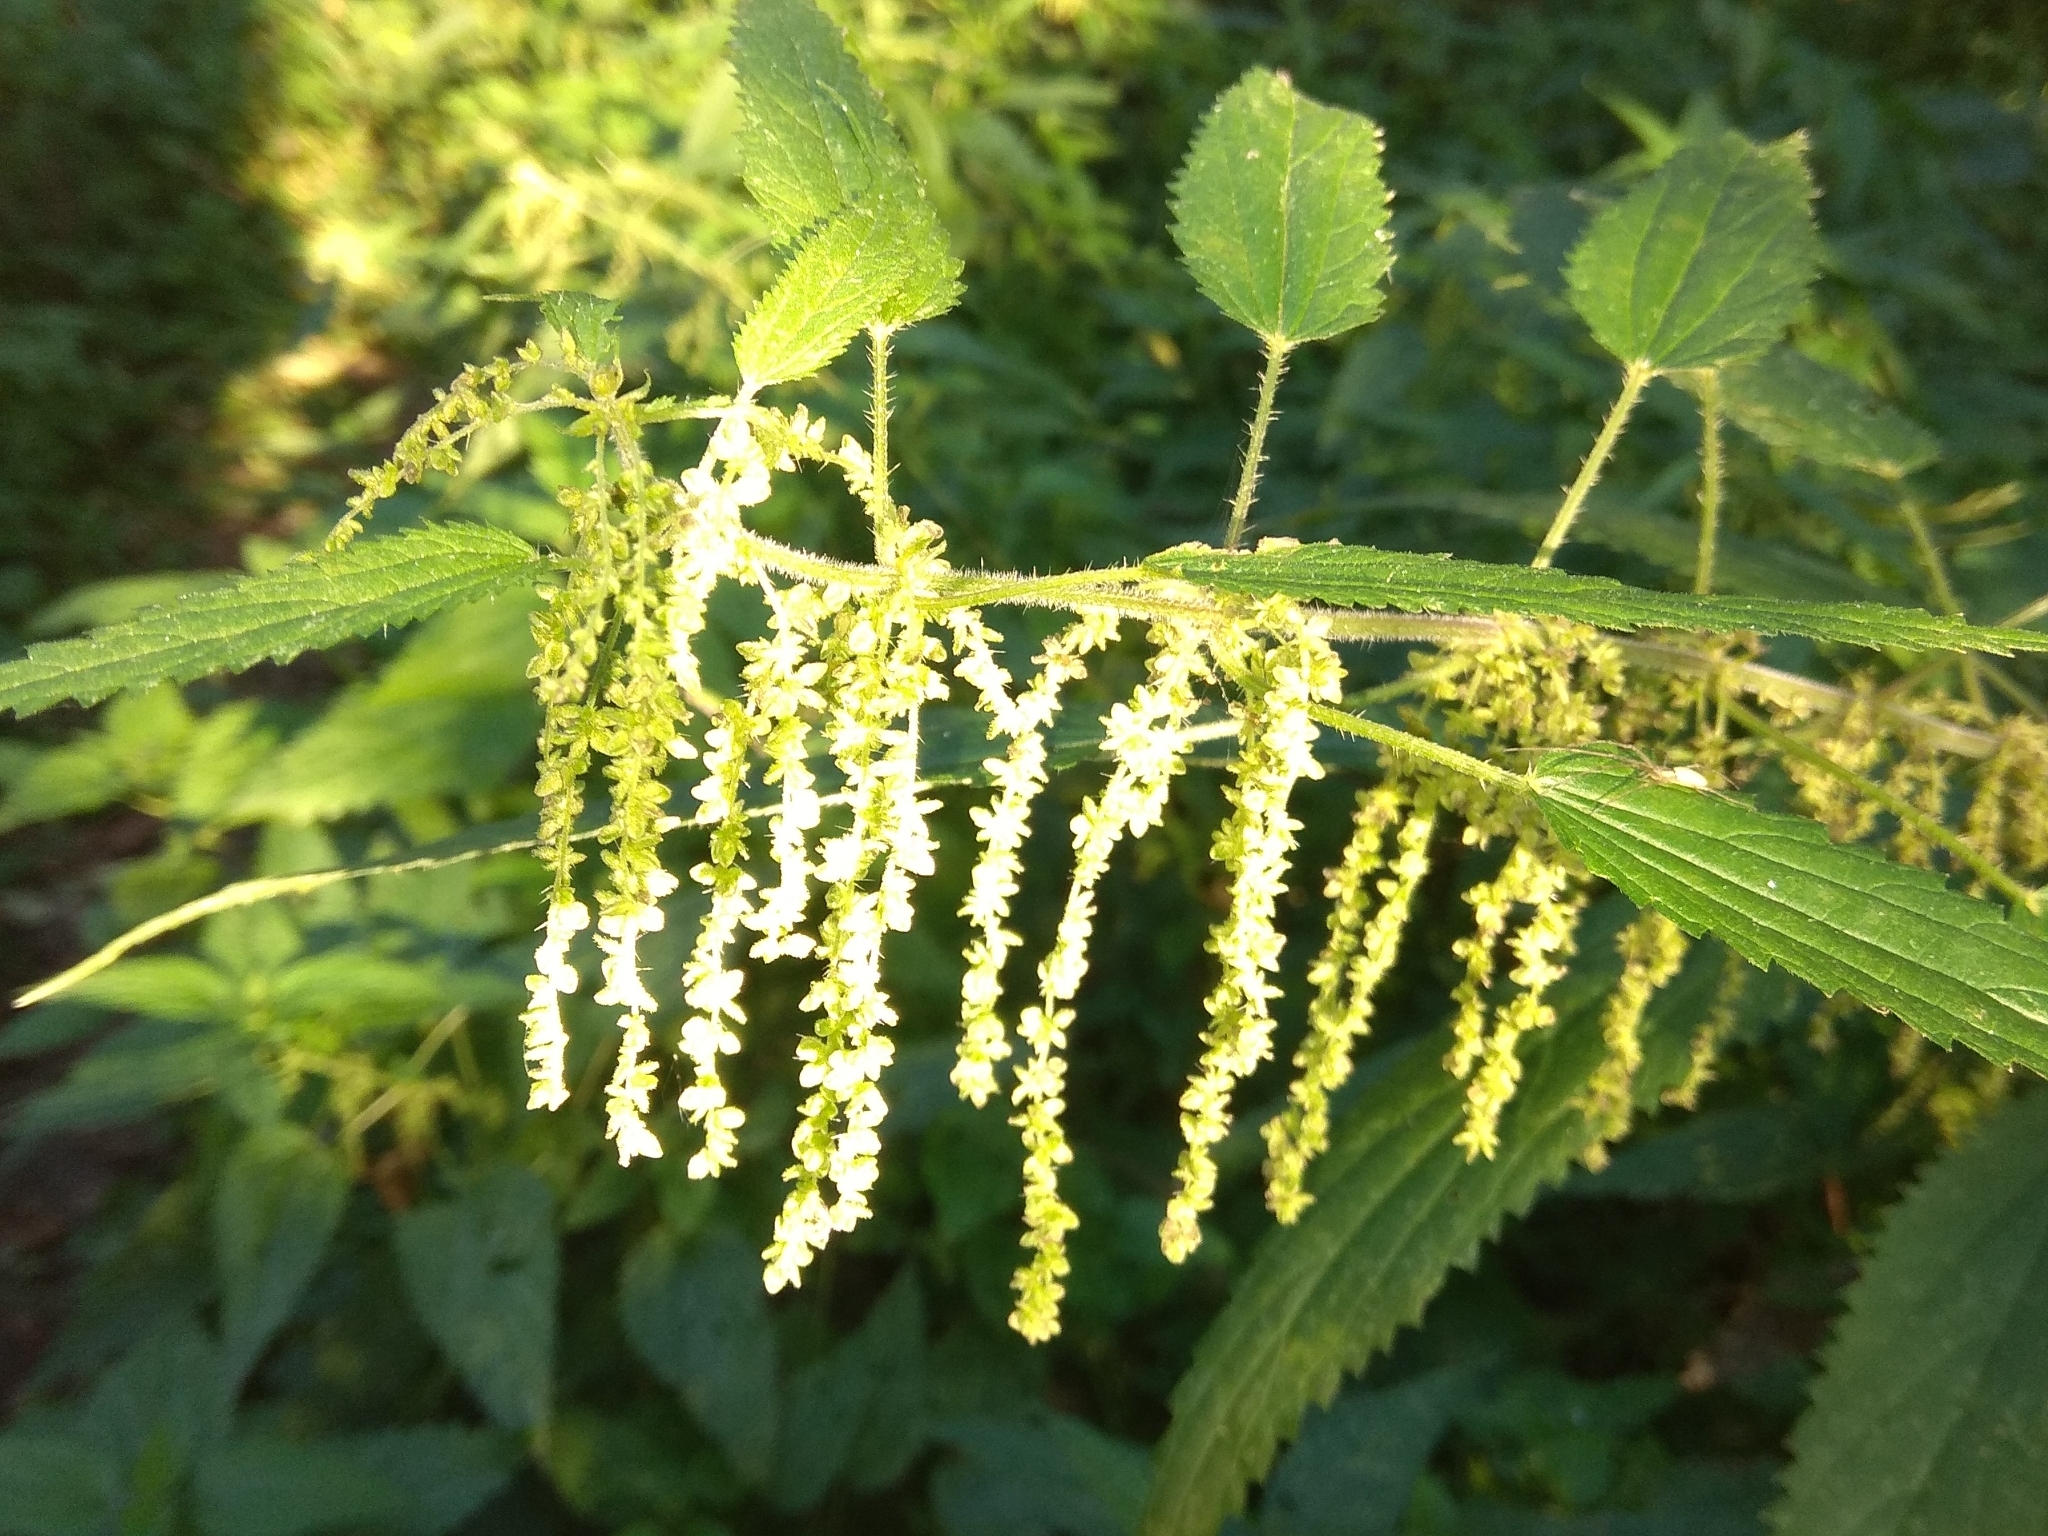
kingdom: Plantae
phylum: Tracheophyta
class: Magnoliopsida
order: Rosales
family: Urticaceae
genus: Urtica
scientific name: Urtica dioica
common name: Common nettle
